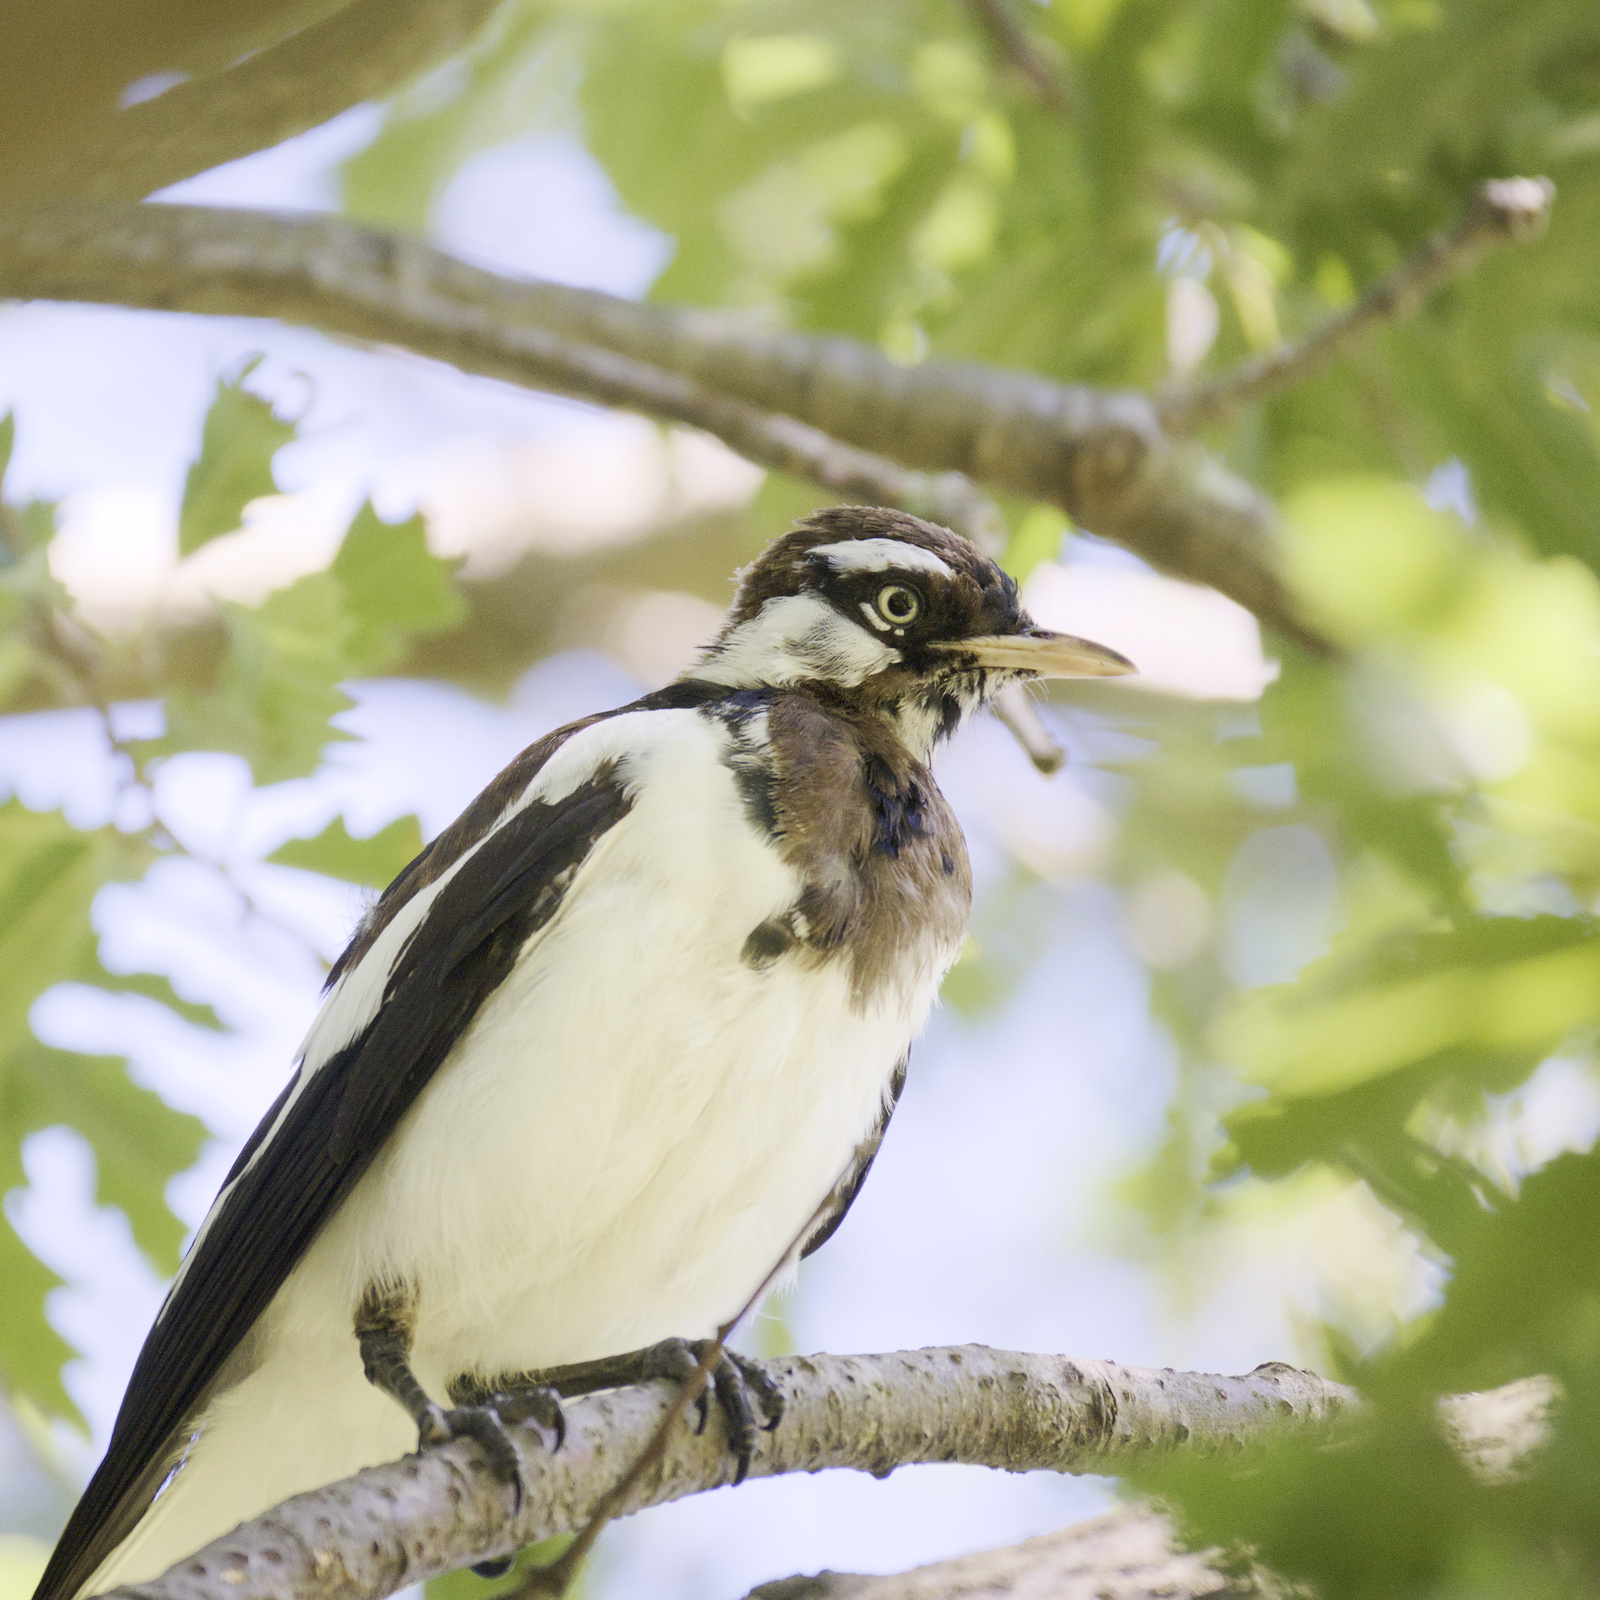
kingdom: Animalia
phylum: Chordata
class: Aves
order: Passeriformes
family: Monarchidae
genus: Grallina
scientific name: Grallina cyanoleuca
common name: Magpie-lark
